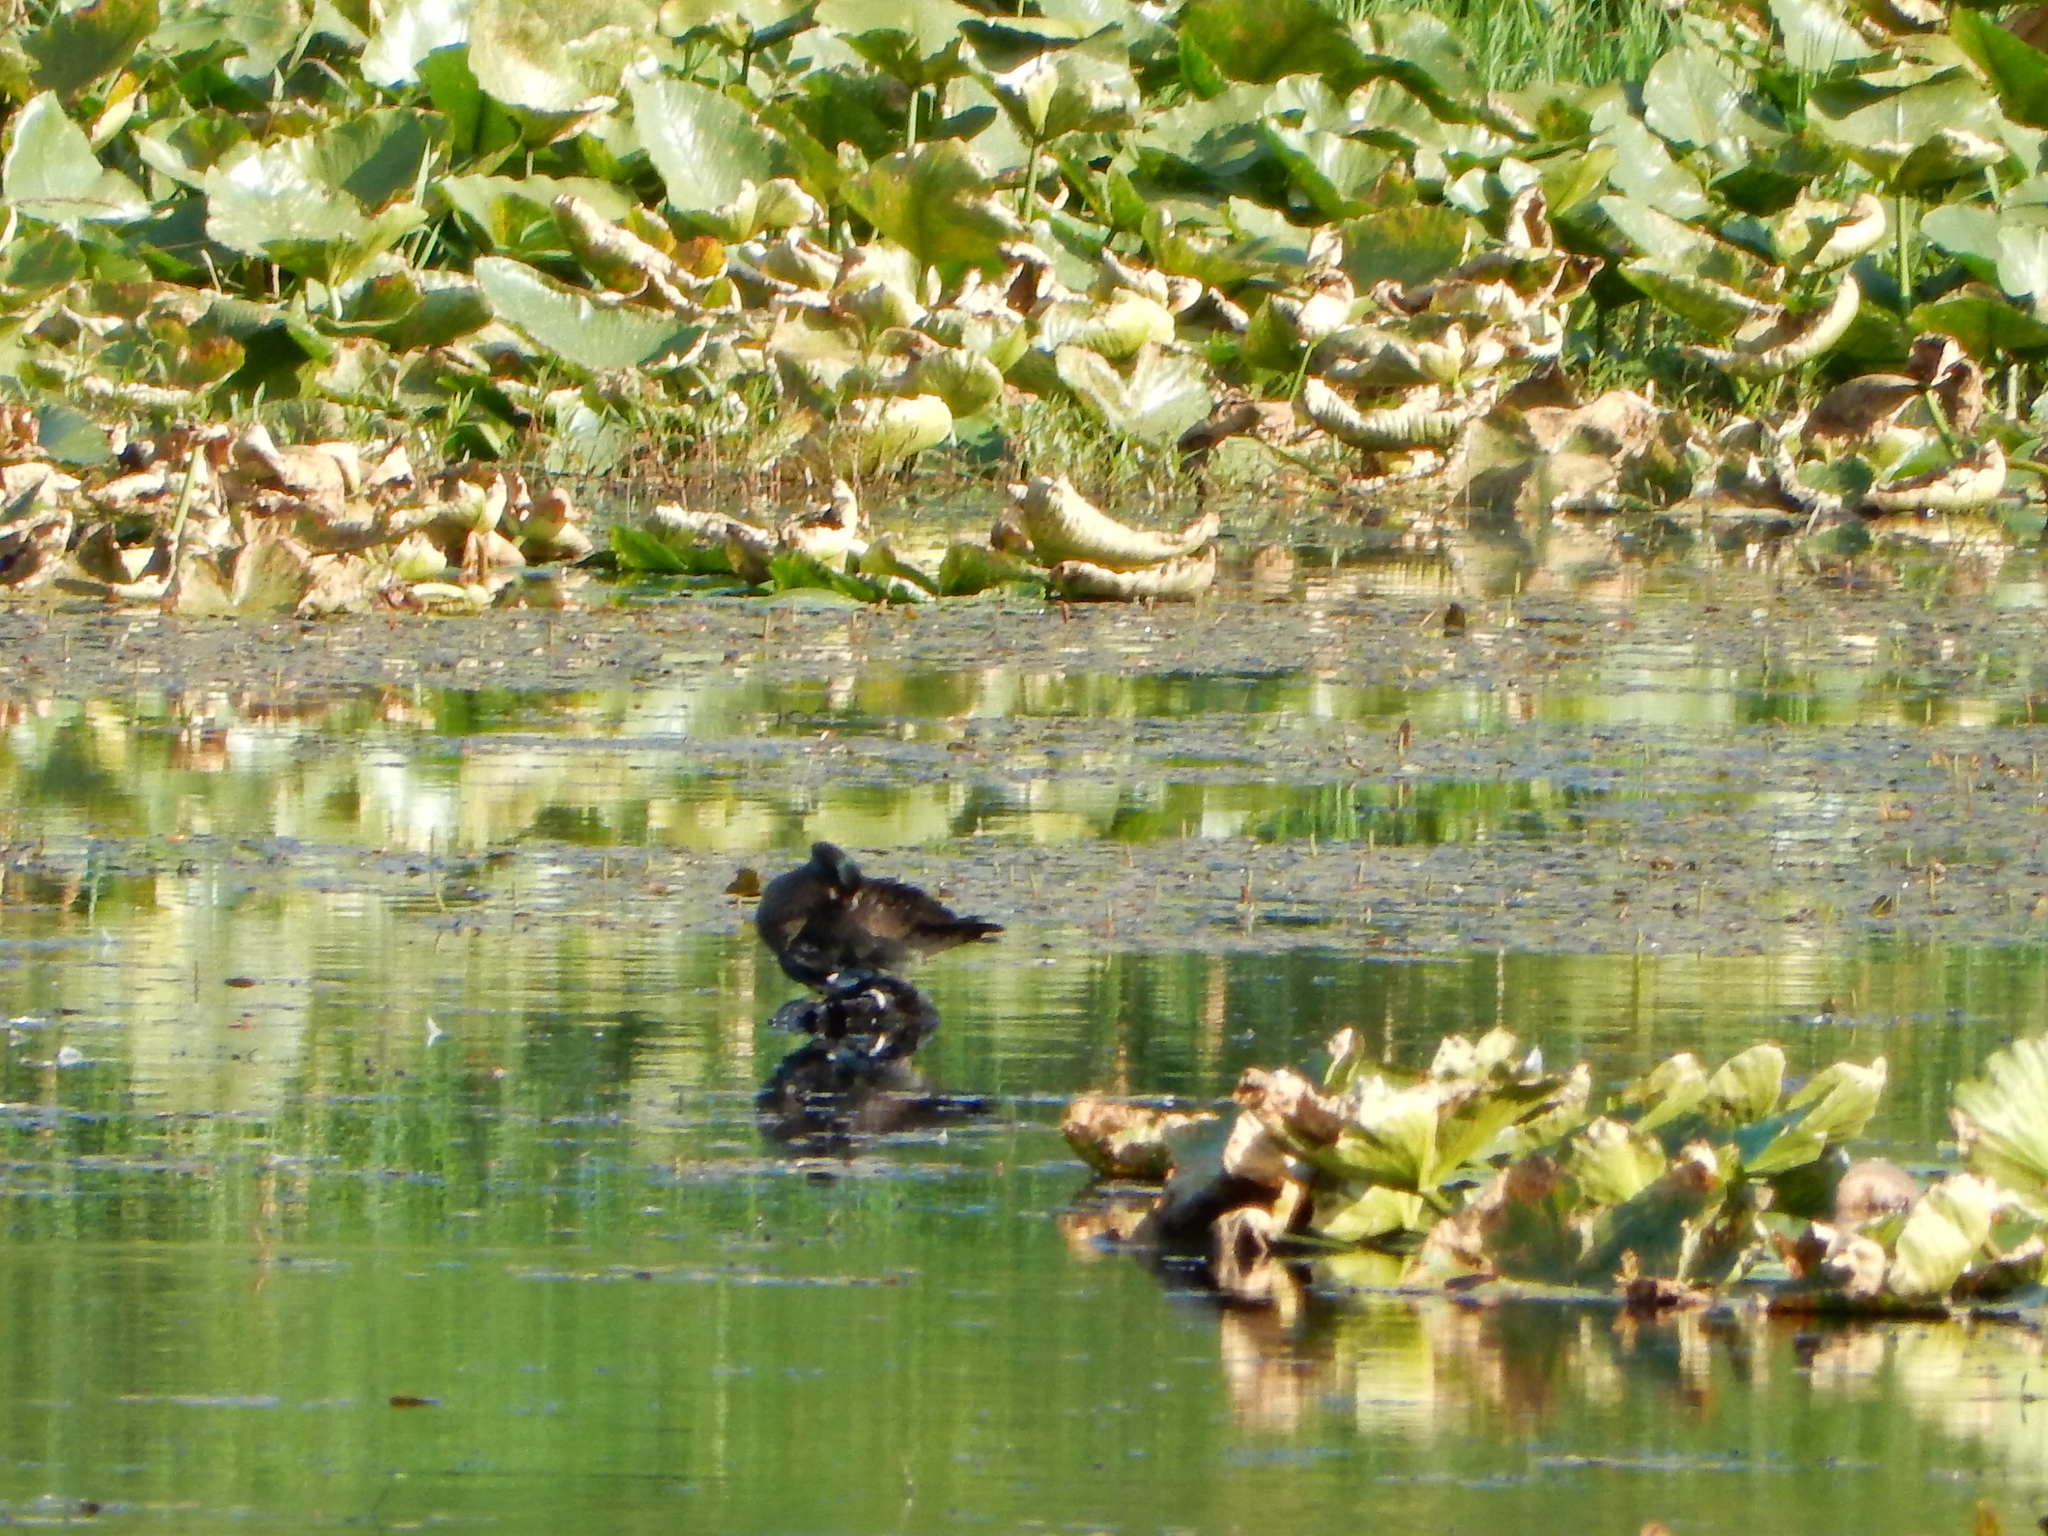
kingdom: Animalia
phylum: Chordata
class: Aves
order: Anseriformes
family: Anatidae
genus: Aix
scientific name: Aix sponsa
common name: Wood duck
